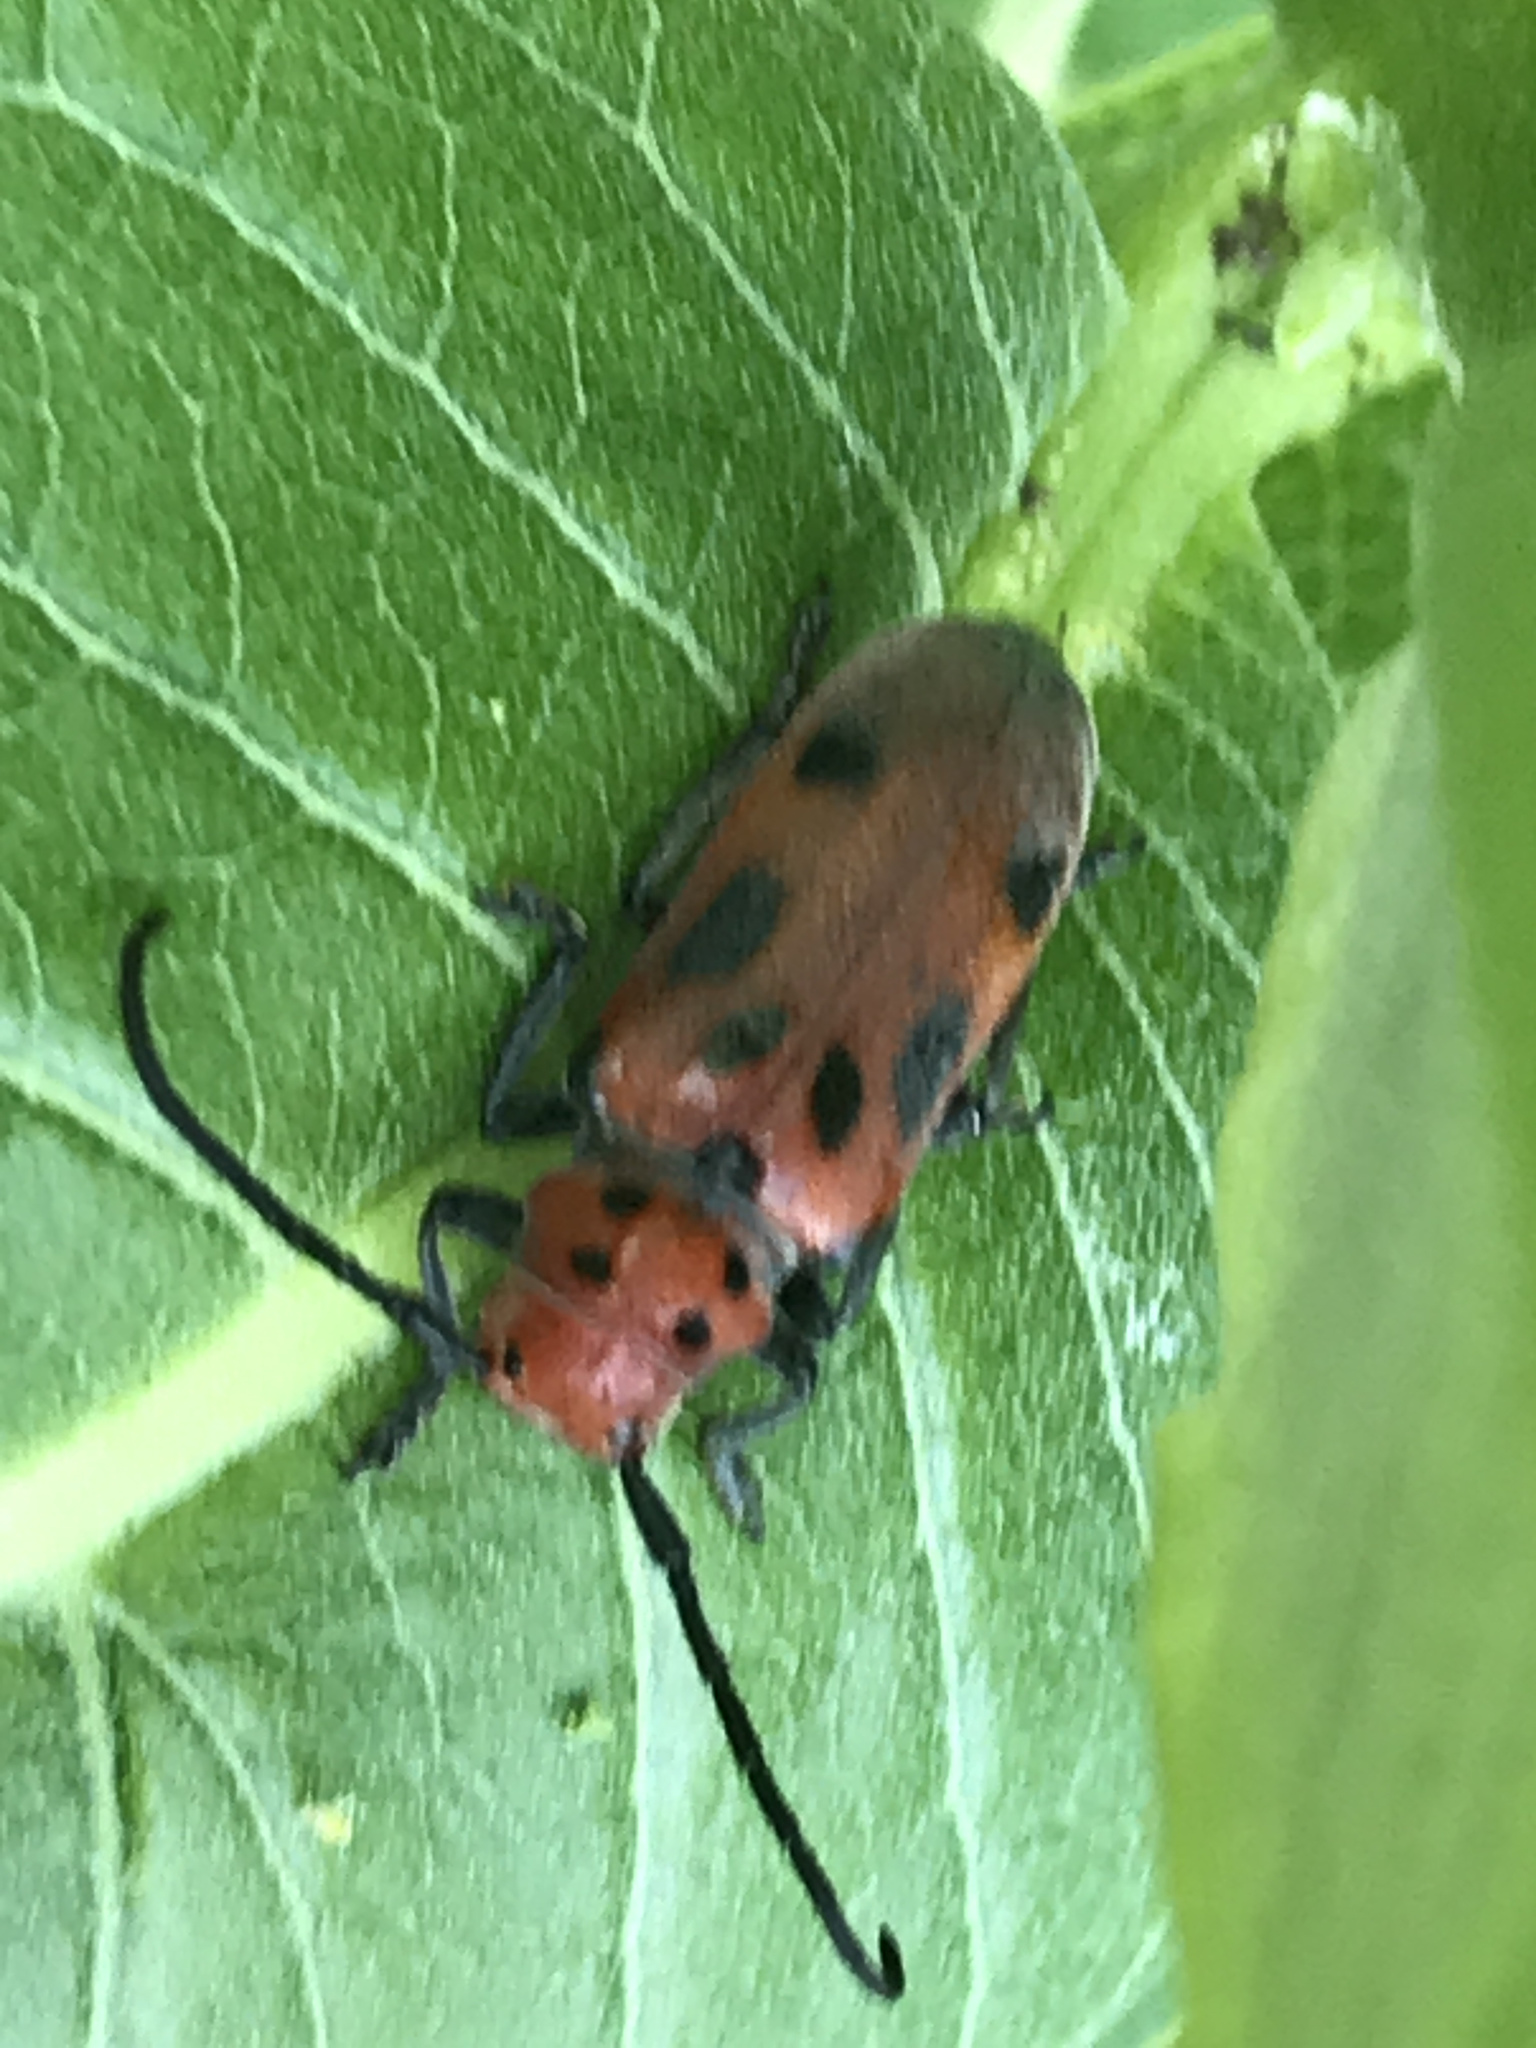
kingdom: Animalia
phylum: Arthropoda
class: Insecta
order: Coleoptera
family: Cerambycidae
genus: Tetraopes
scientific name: Tetraopes tetrophthalmus
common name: Red milkweed beetle
